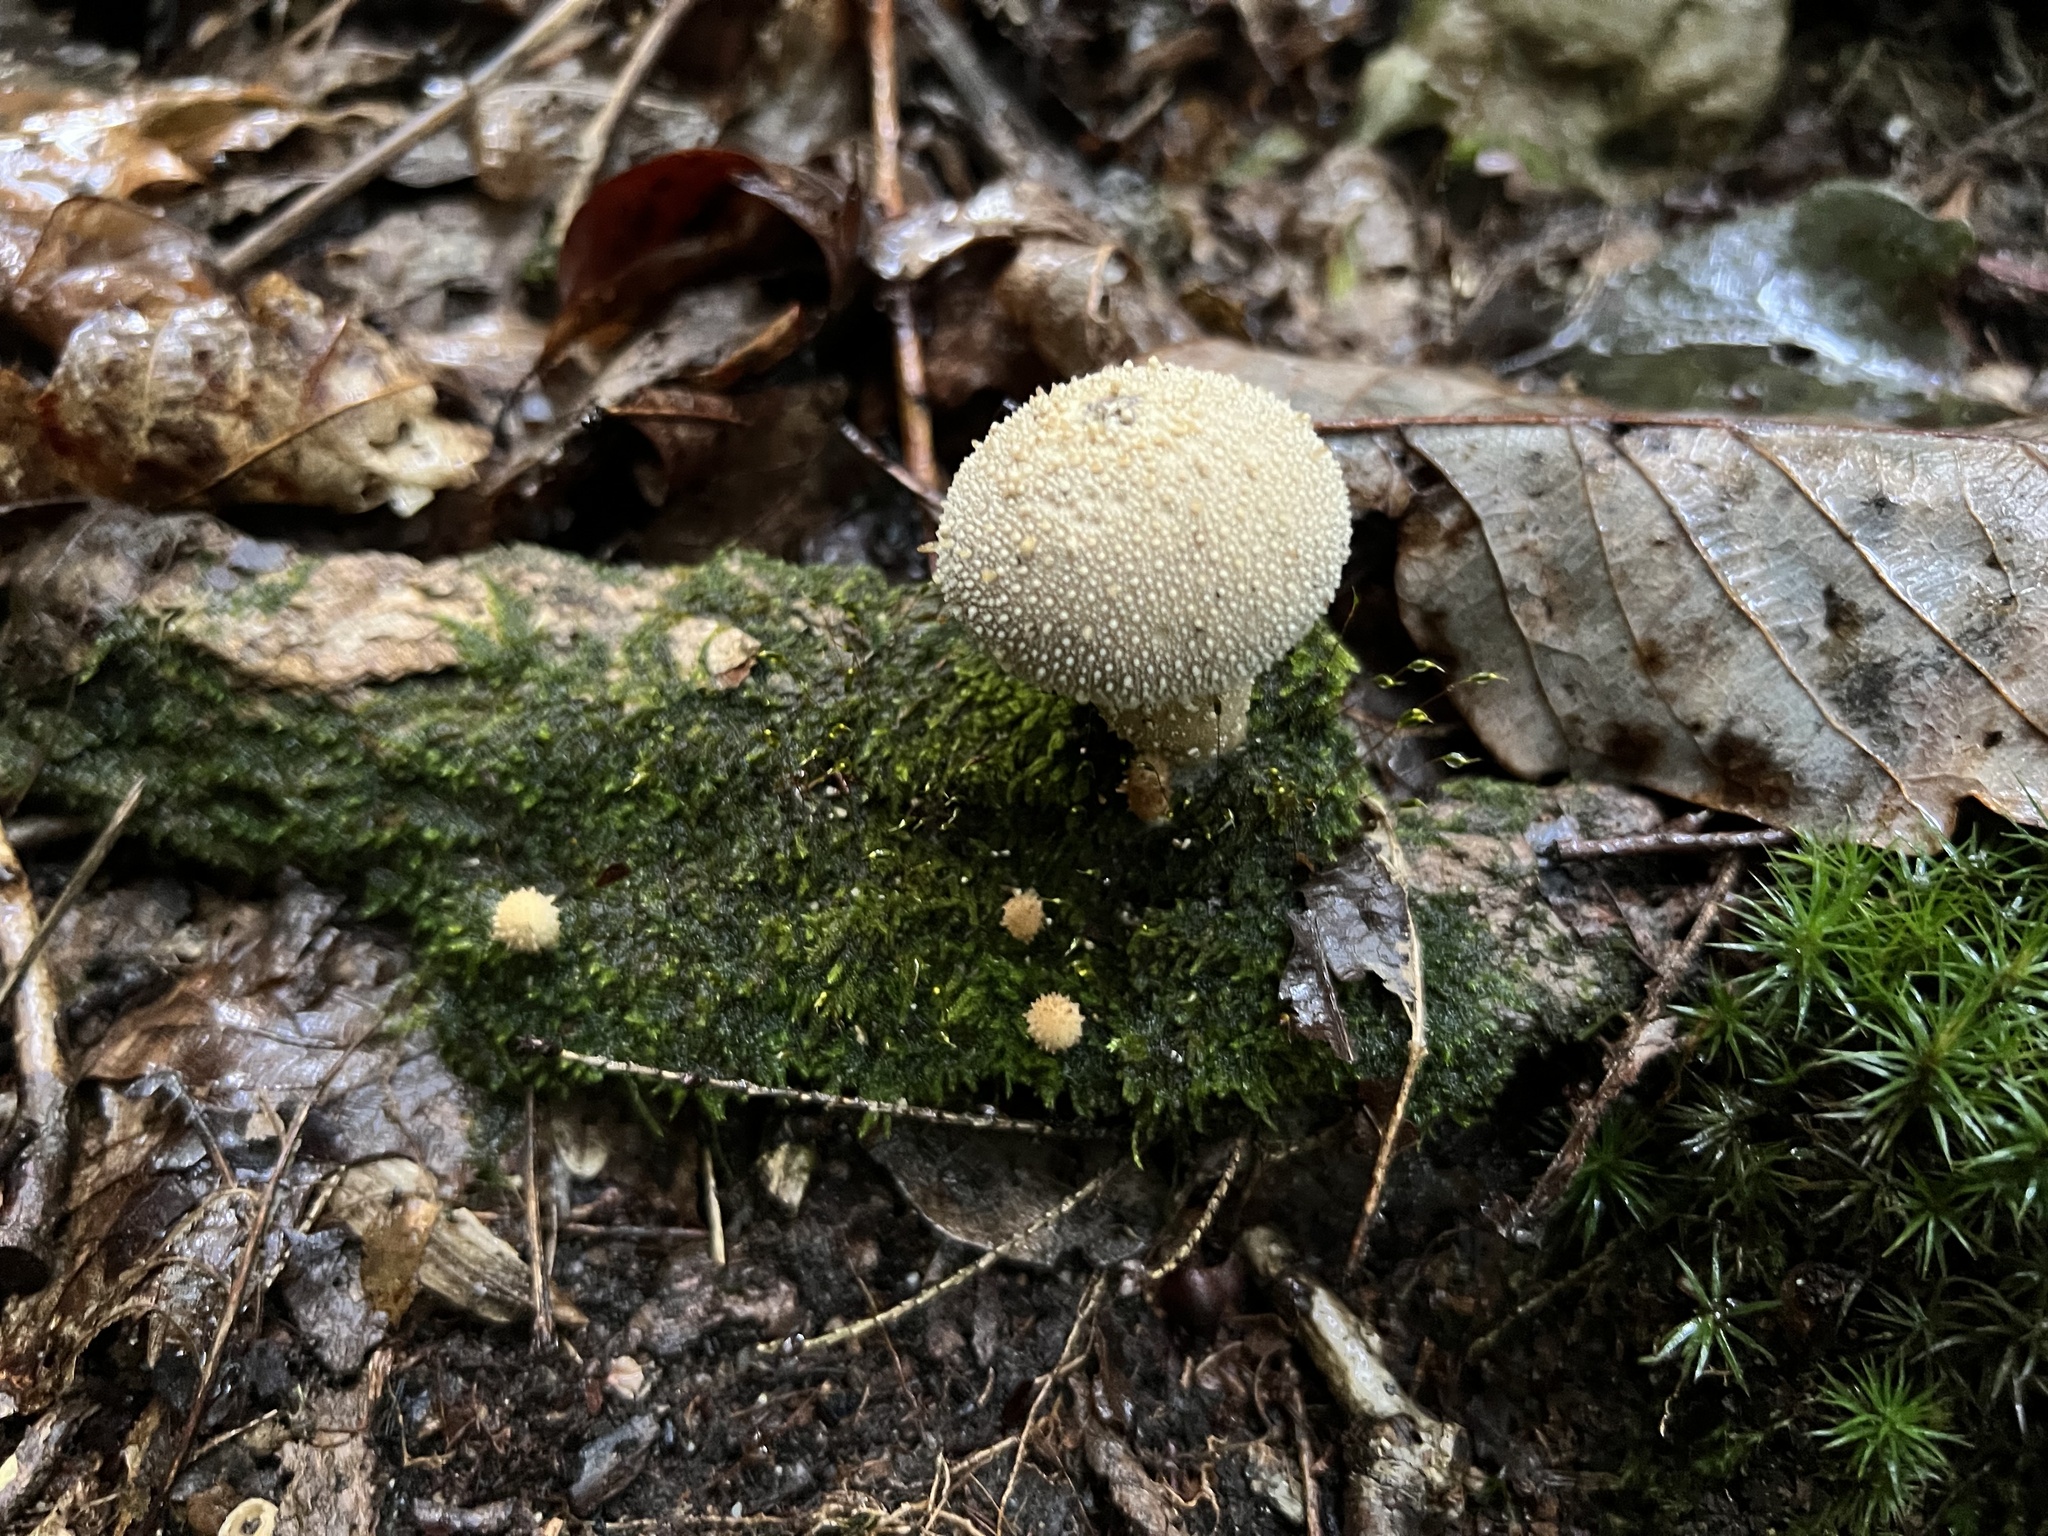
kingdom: Fungi
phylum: Basidiomycota
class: Agaricomycetes
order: Agaricales
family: Lycoperdaceae
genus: Lycoperdon
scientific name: Lycoperdon perlatum
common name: Common puffball
